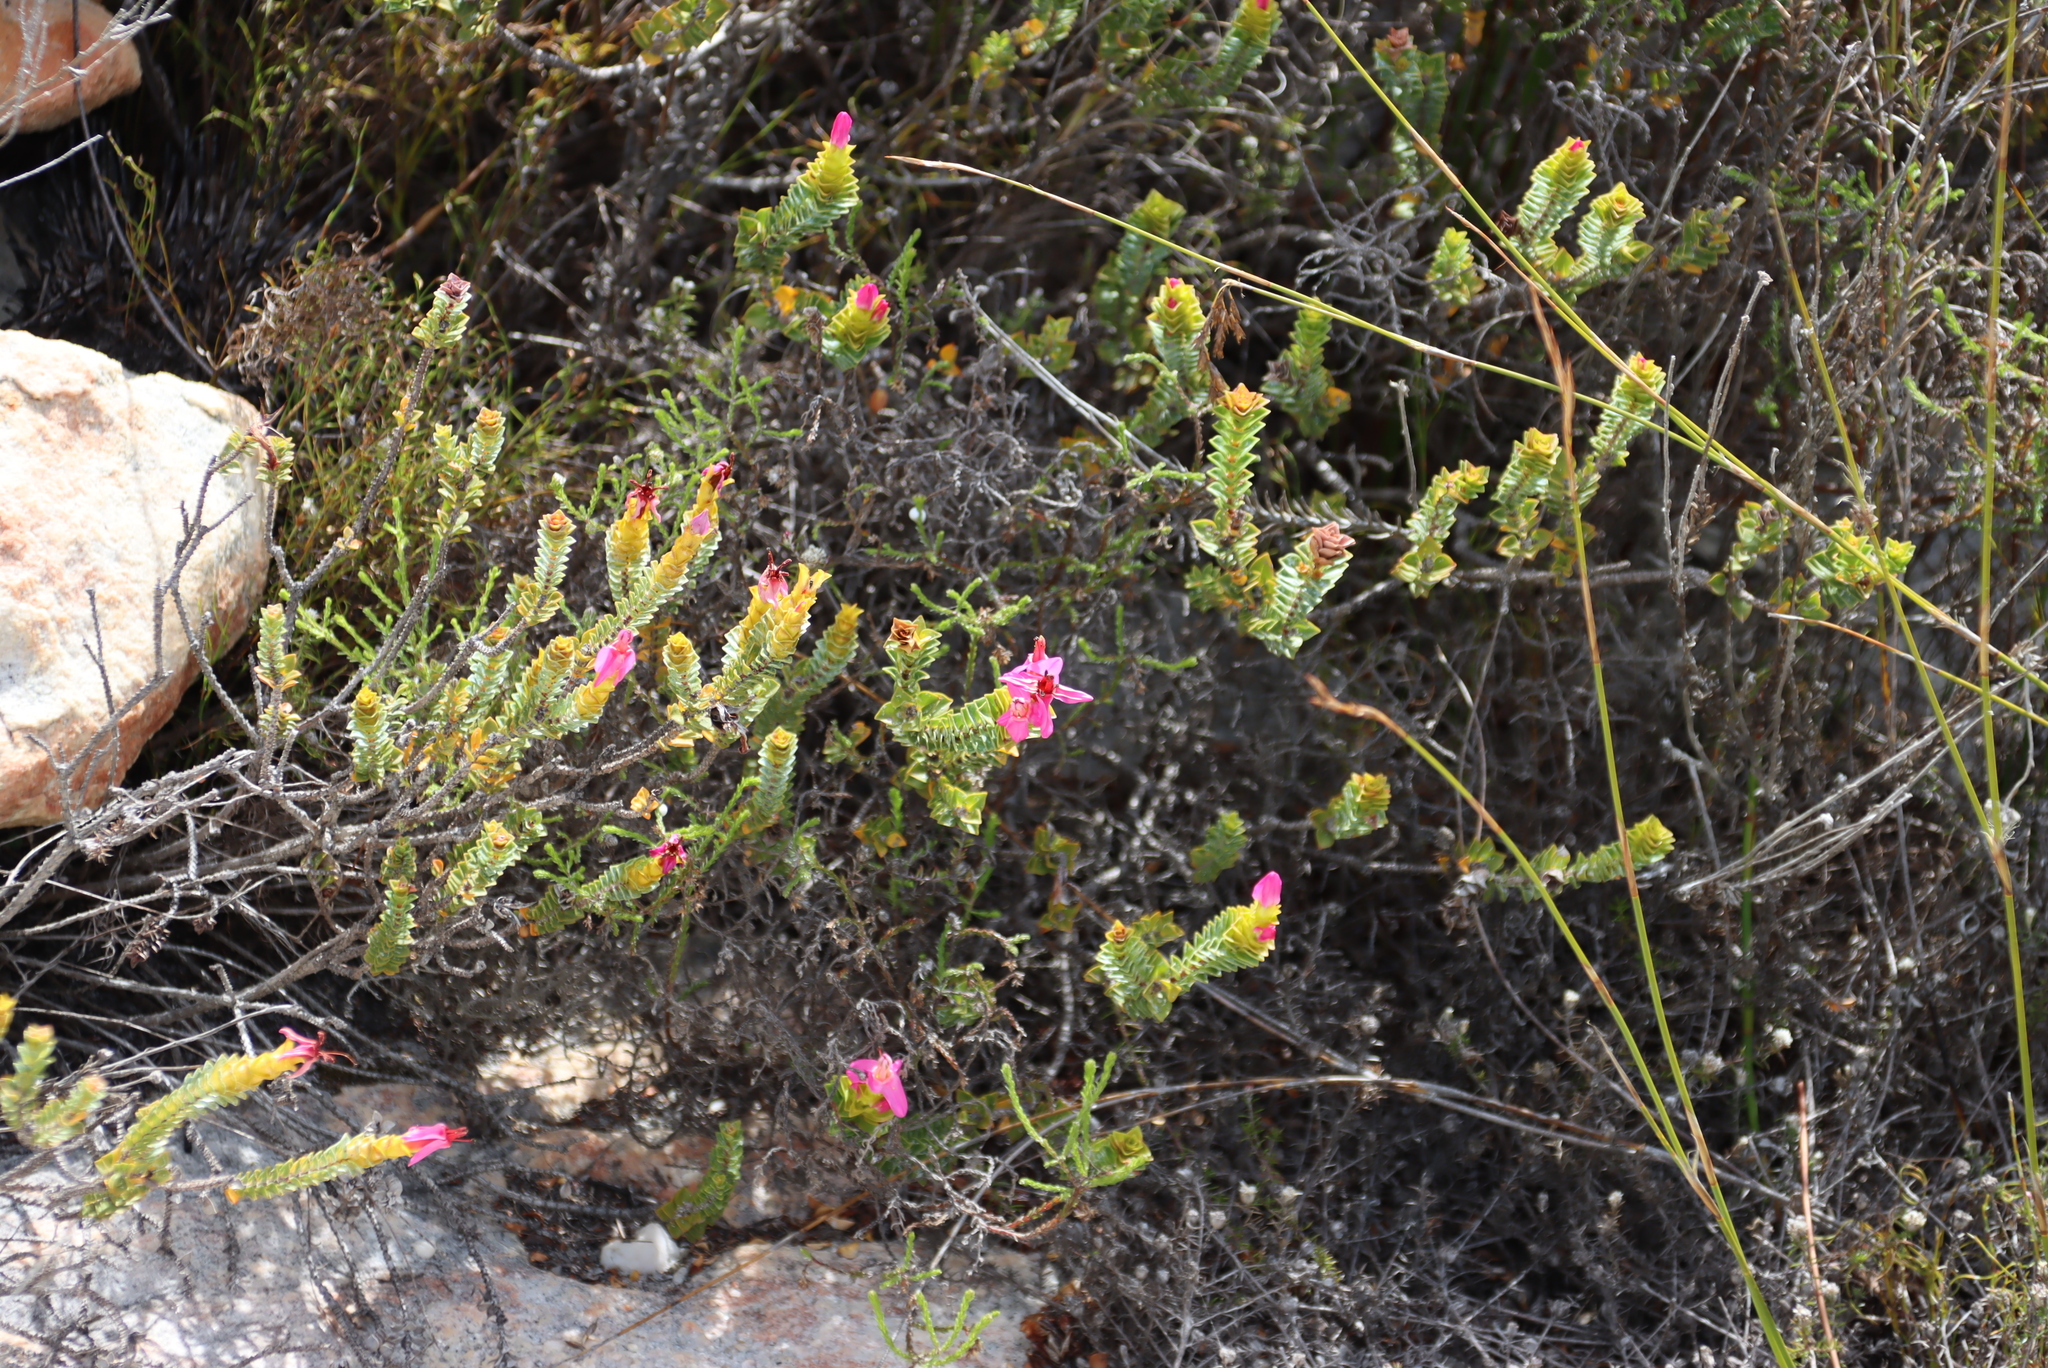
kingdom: Plantae
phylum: Tracheophyta
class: Magnoliopsida
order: Myrtales
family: Penaeaceae
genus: Saltera
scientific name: Saltera sarcocolla
